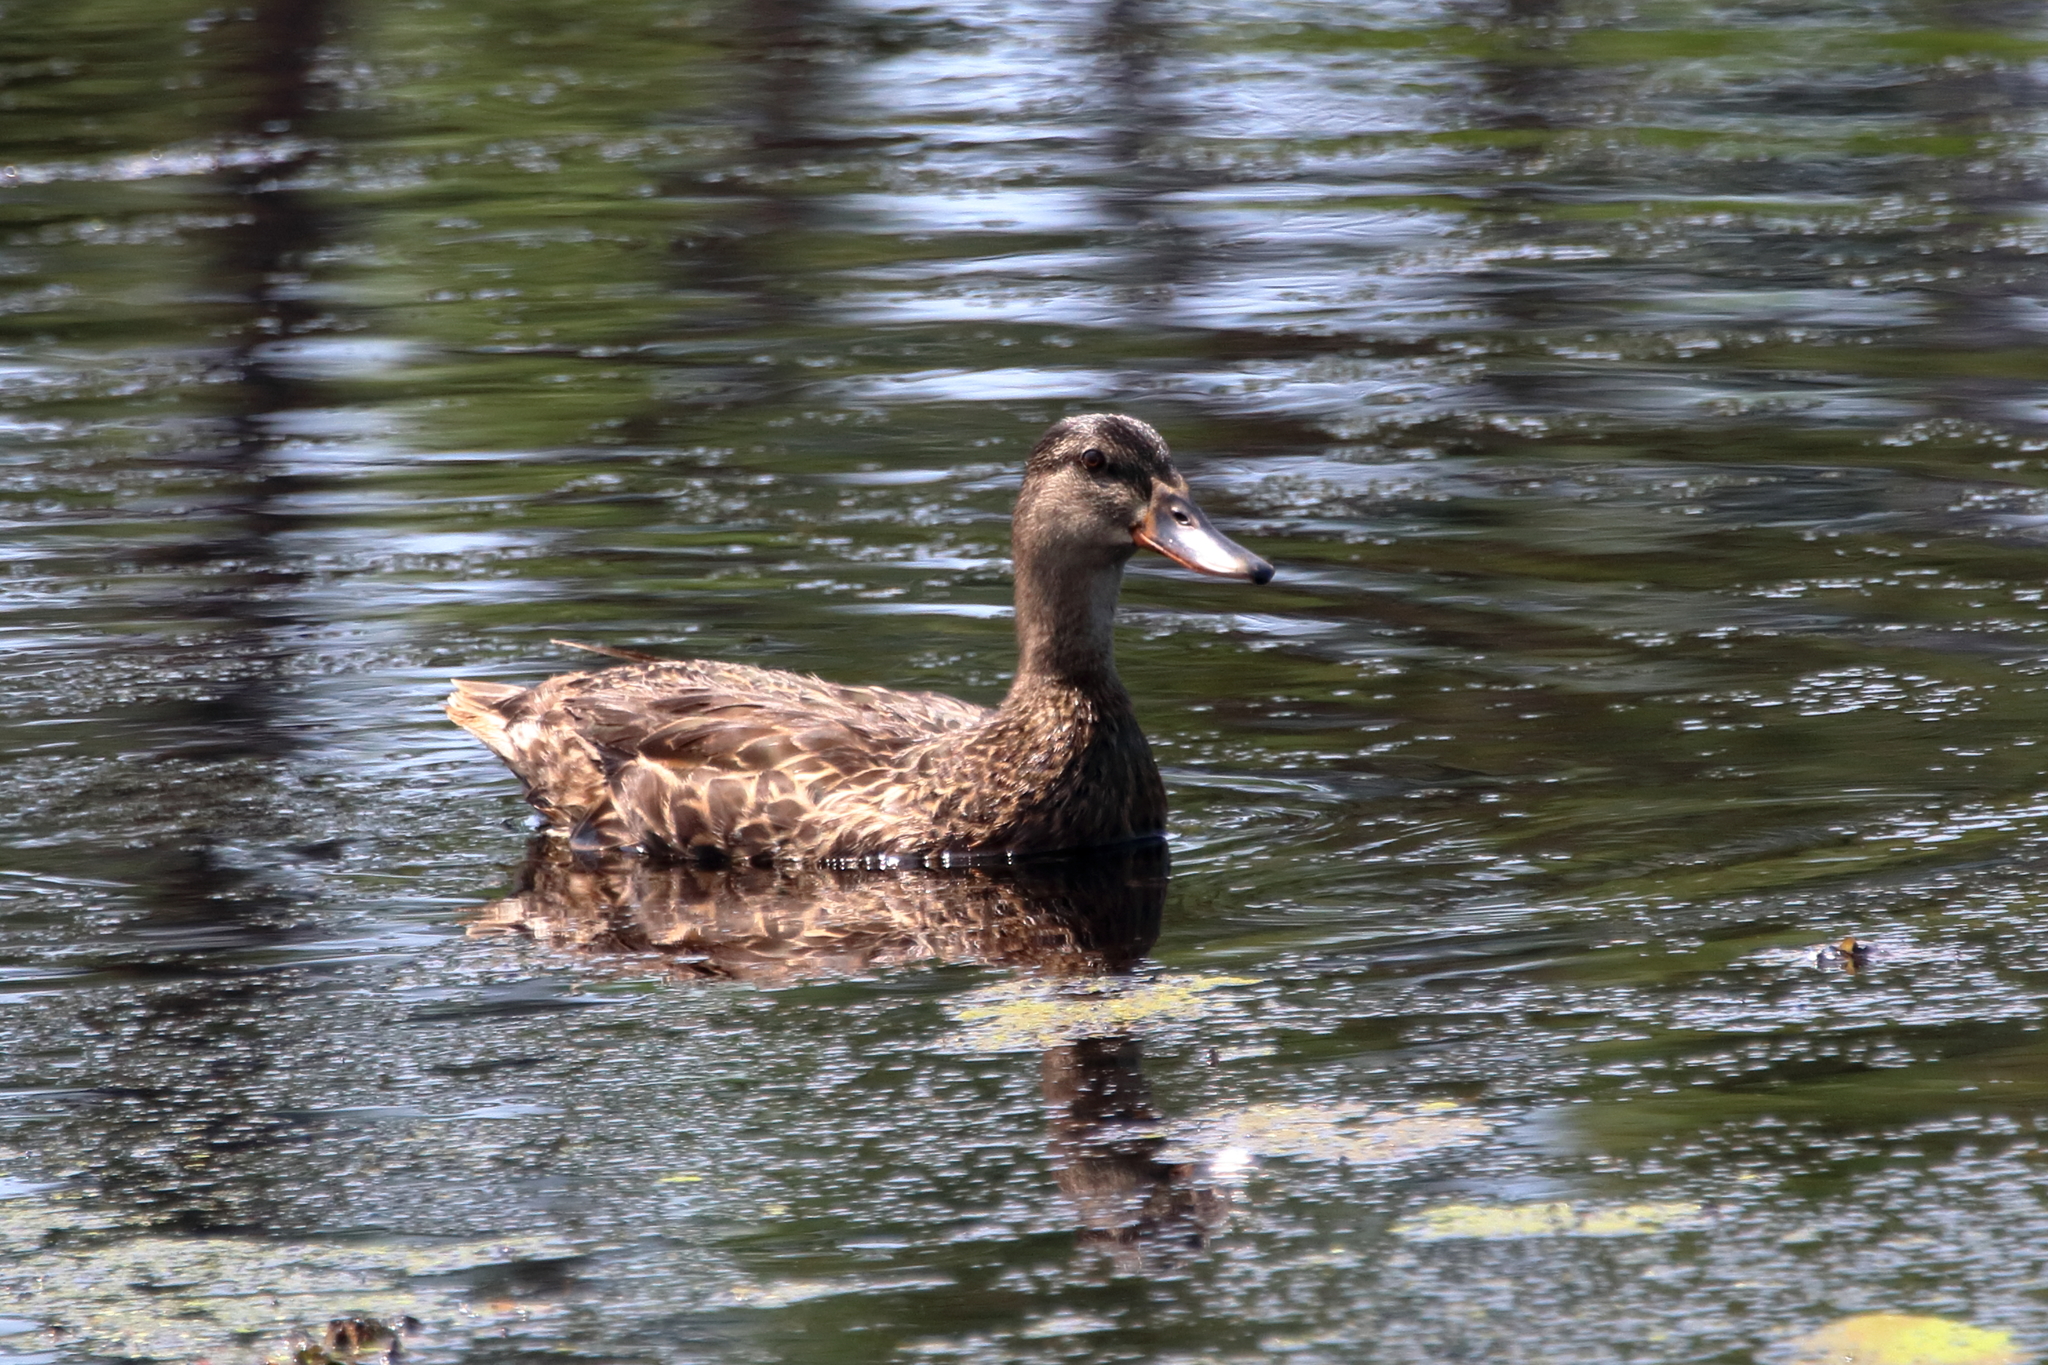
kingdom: Animalia
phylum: Chordata
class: Aves
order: Anseriformes
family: Anatidae
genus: Anas
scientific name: Anas platyrhynchos
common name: Mallard
